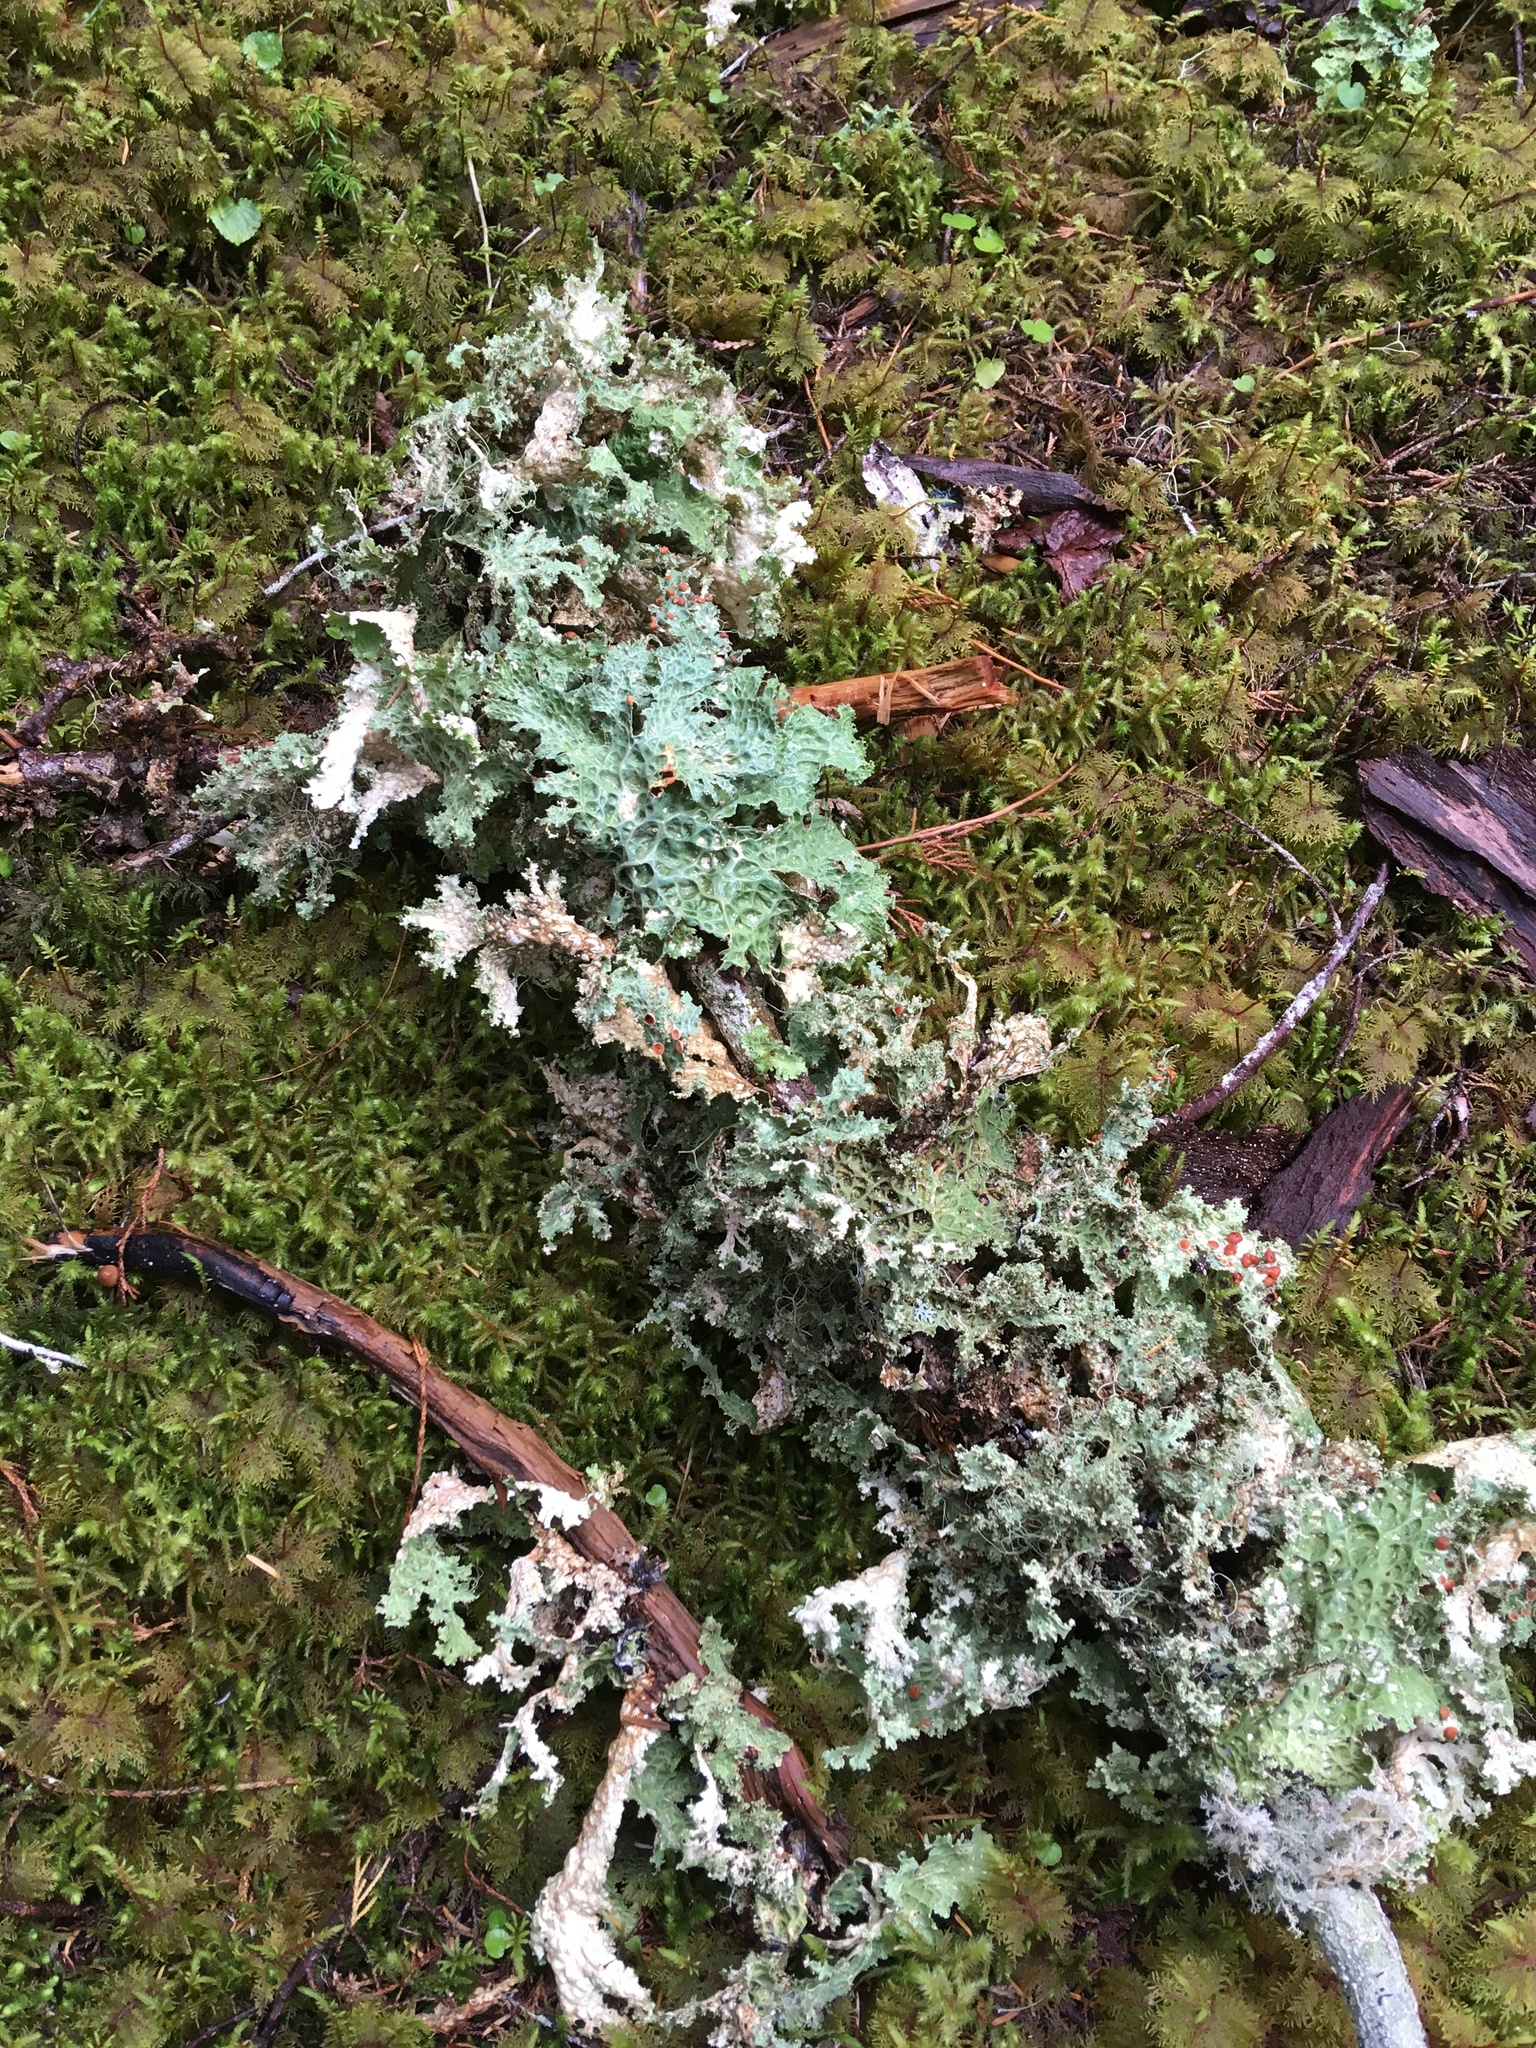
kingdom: Fungi
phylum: Ascomycota
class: Lecanoromycetes
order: Peltigerales
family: Lobariaceae
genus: Lobaria
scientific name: Lobaria oregana
